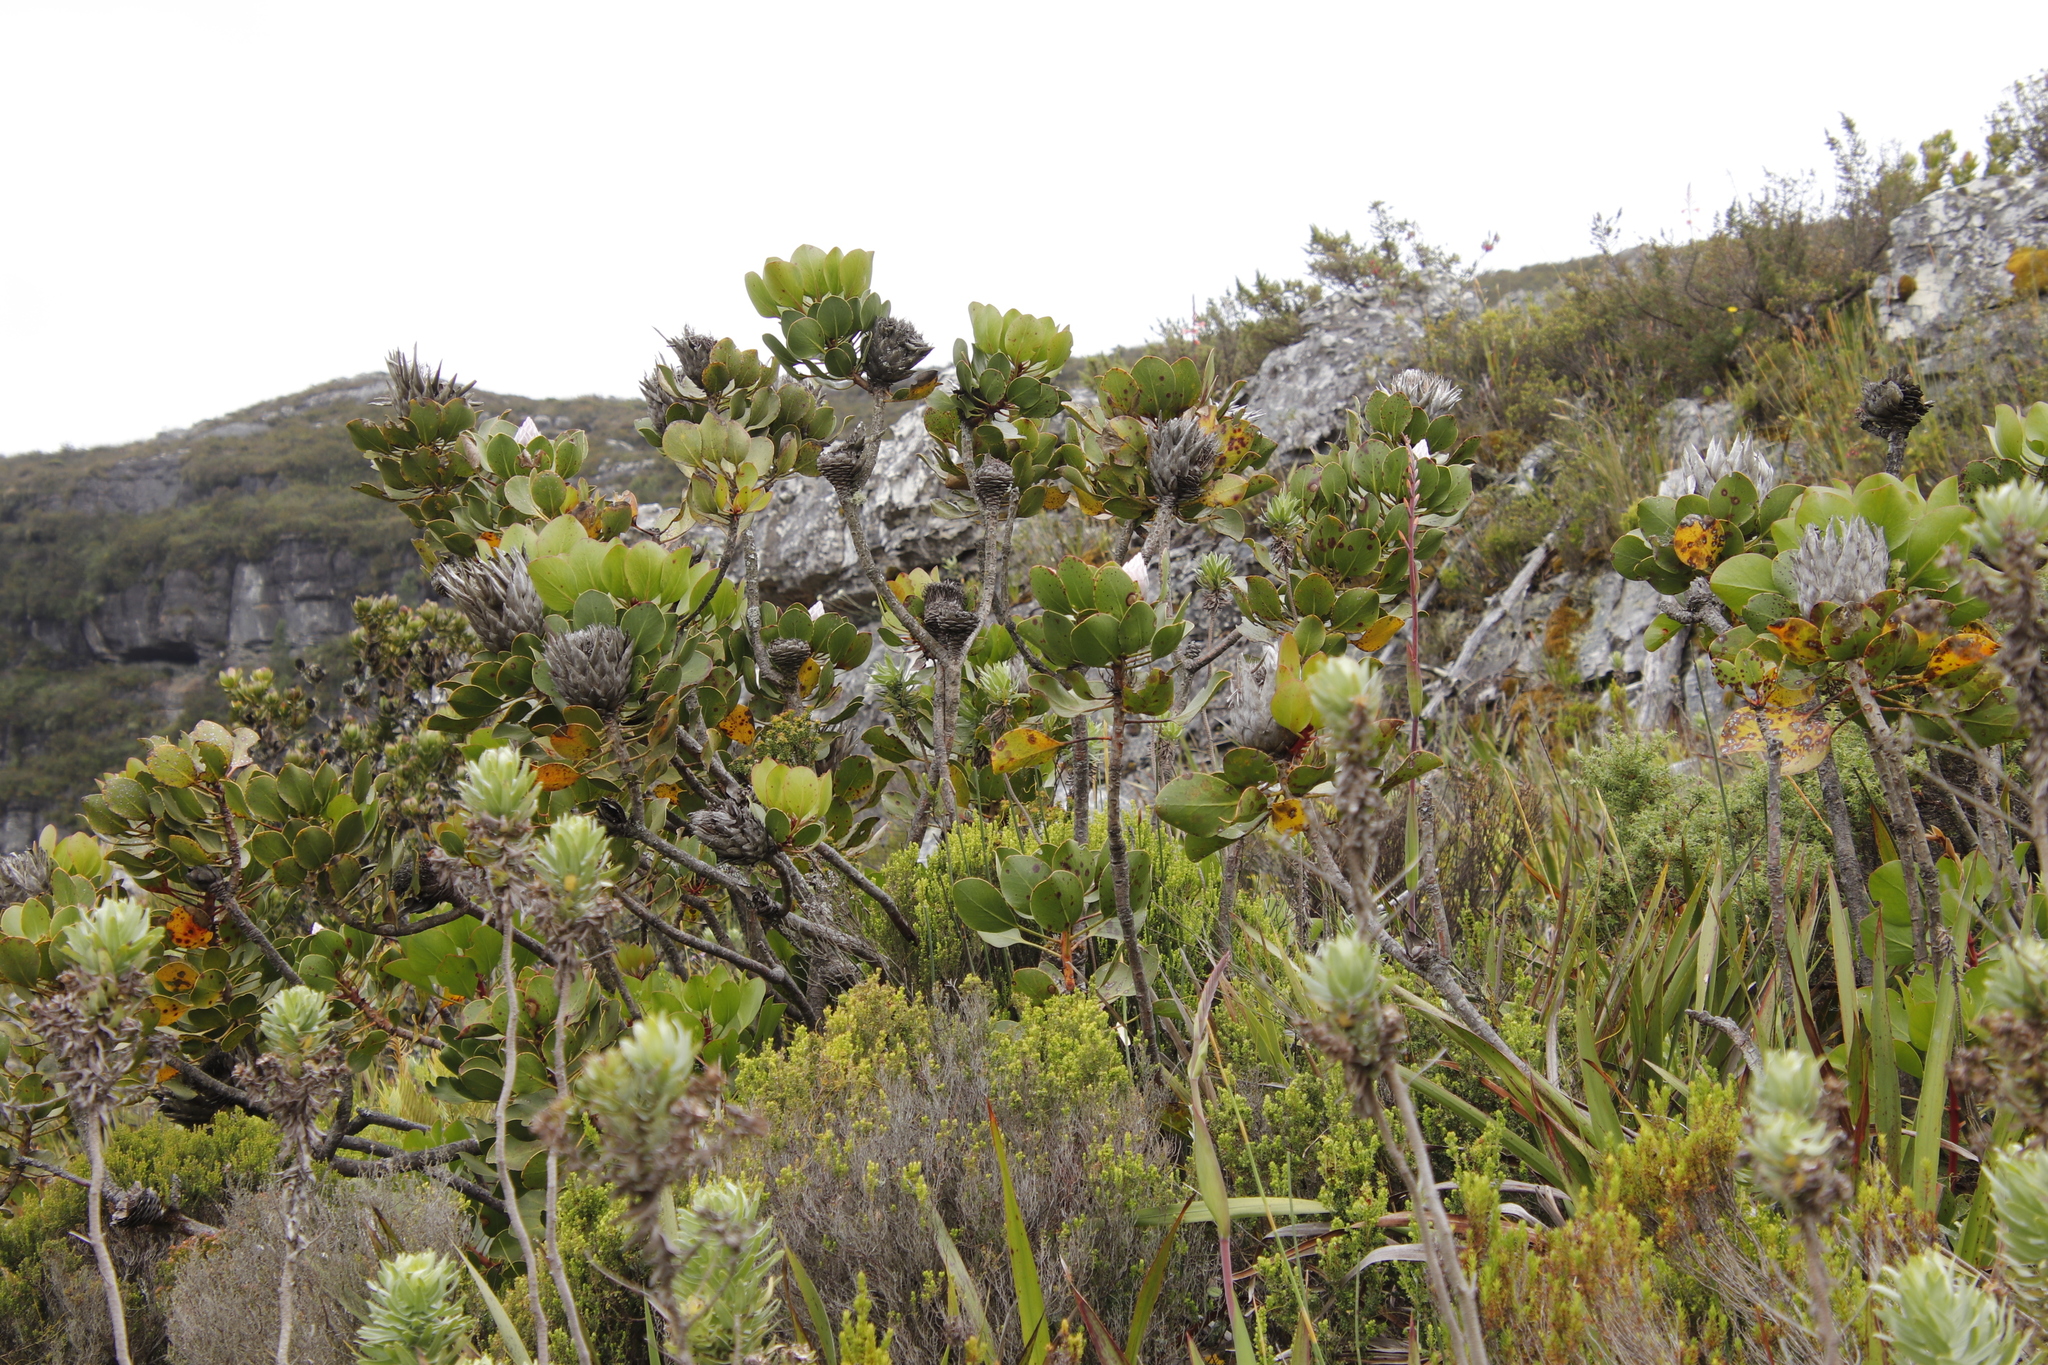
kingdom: Plantae
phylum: Tracheophyta
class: Magnoliopsida
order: Proteales
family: Proteaceae
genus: Protea
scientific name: Protea cynaroides
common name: King protea
